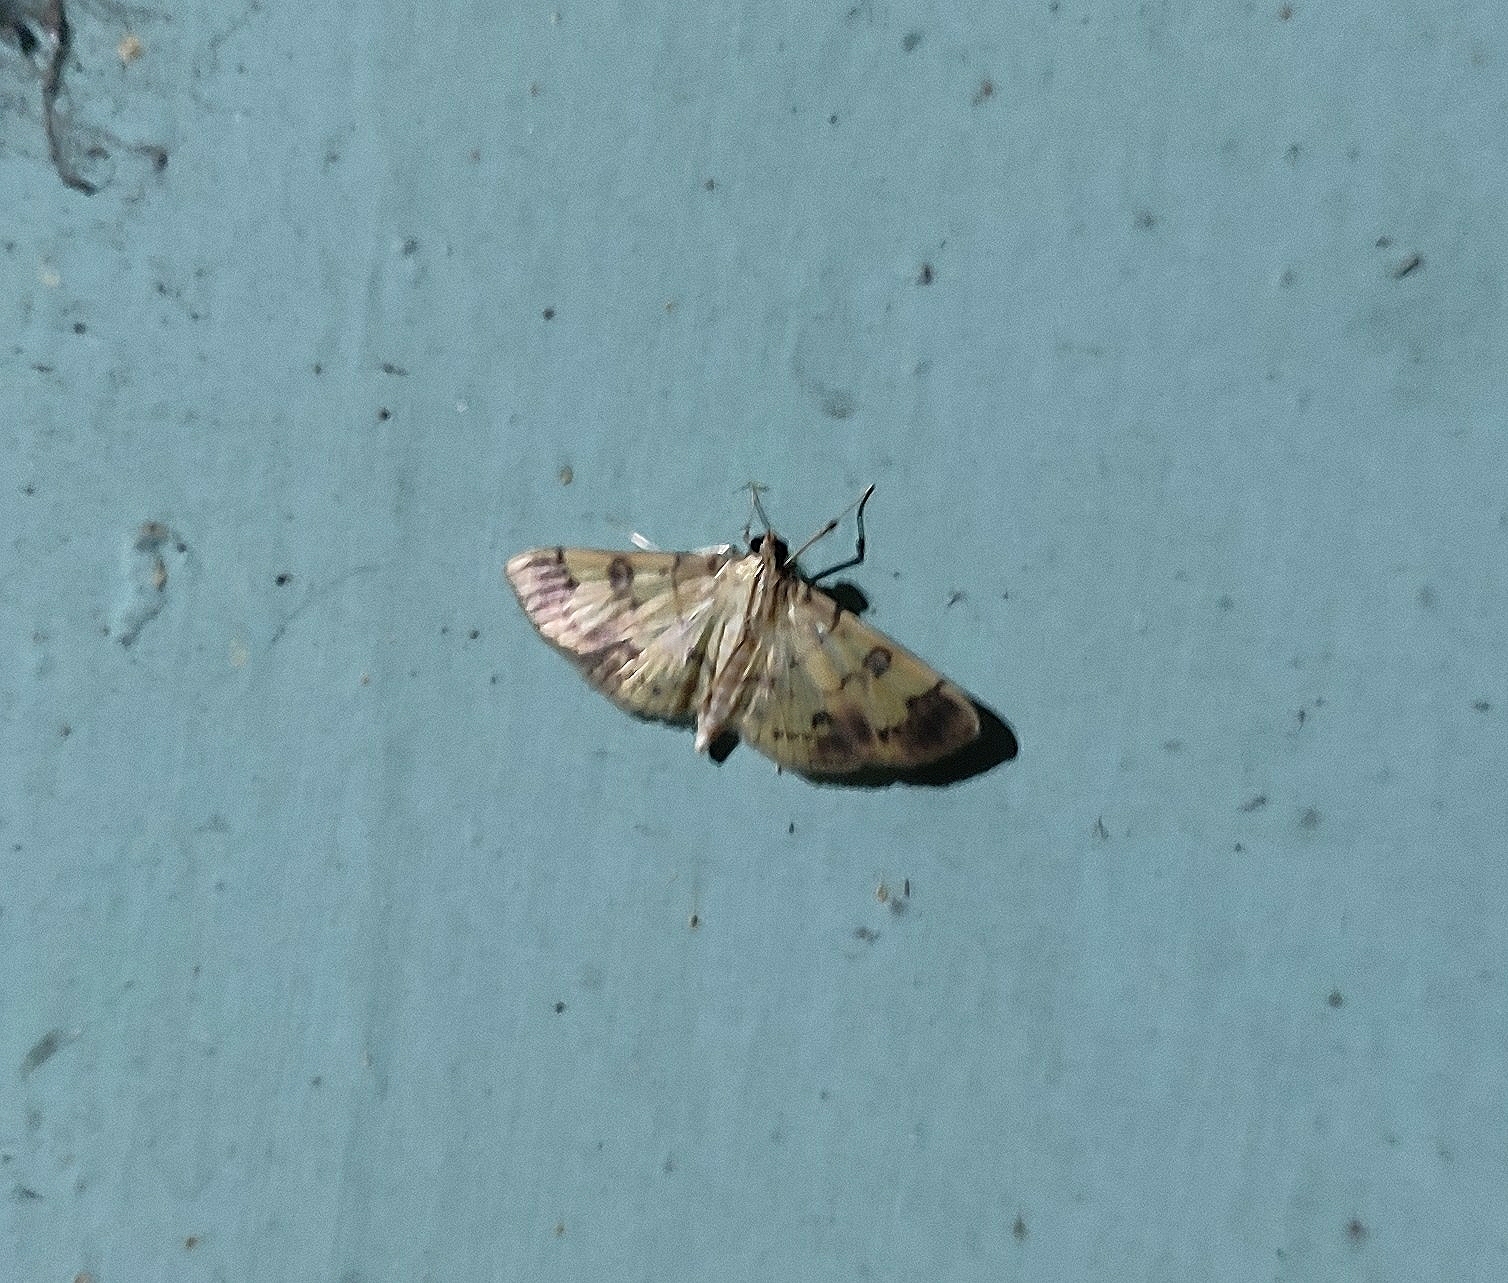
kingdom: Animalia
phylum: Arthropoda
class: Insecta
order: Lepidoptera
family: Crambidae
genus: Patania
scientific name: Patania iopasalis
